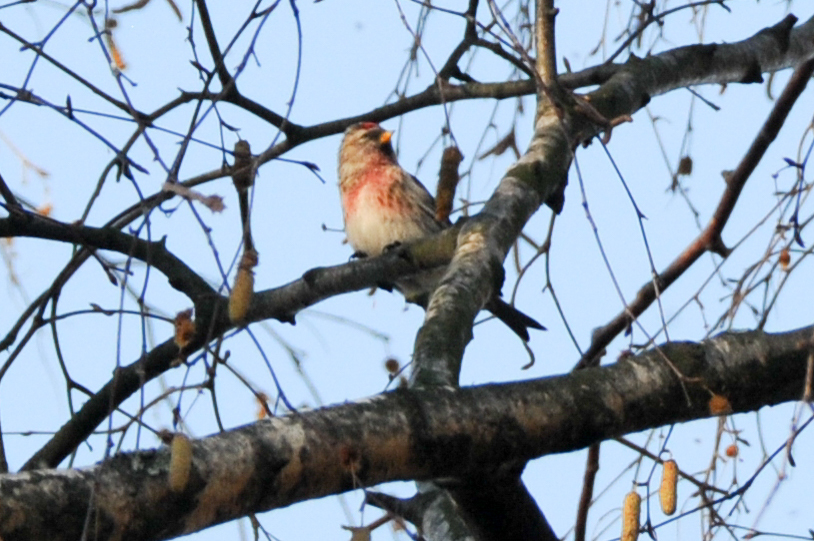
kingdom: Animalia
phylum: Chordata
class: Aves
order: Passeriformes
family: Fringillidae
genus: Acanthis
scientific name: Acanthis flammea
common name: Common redpoll
